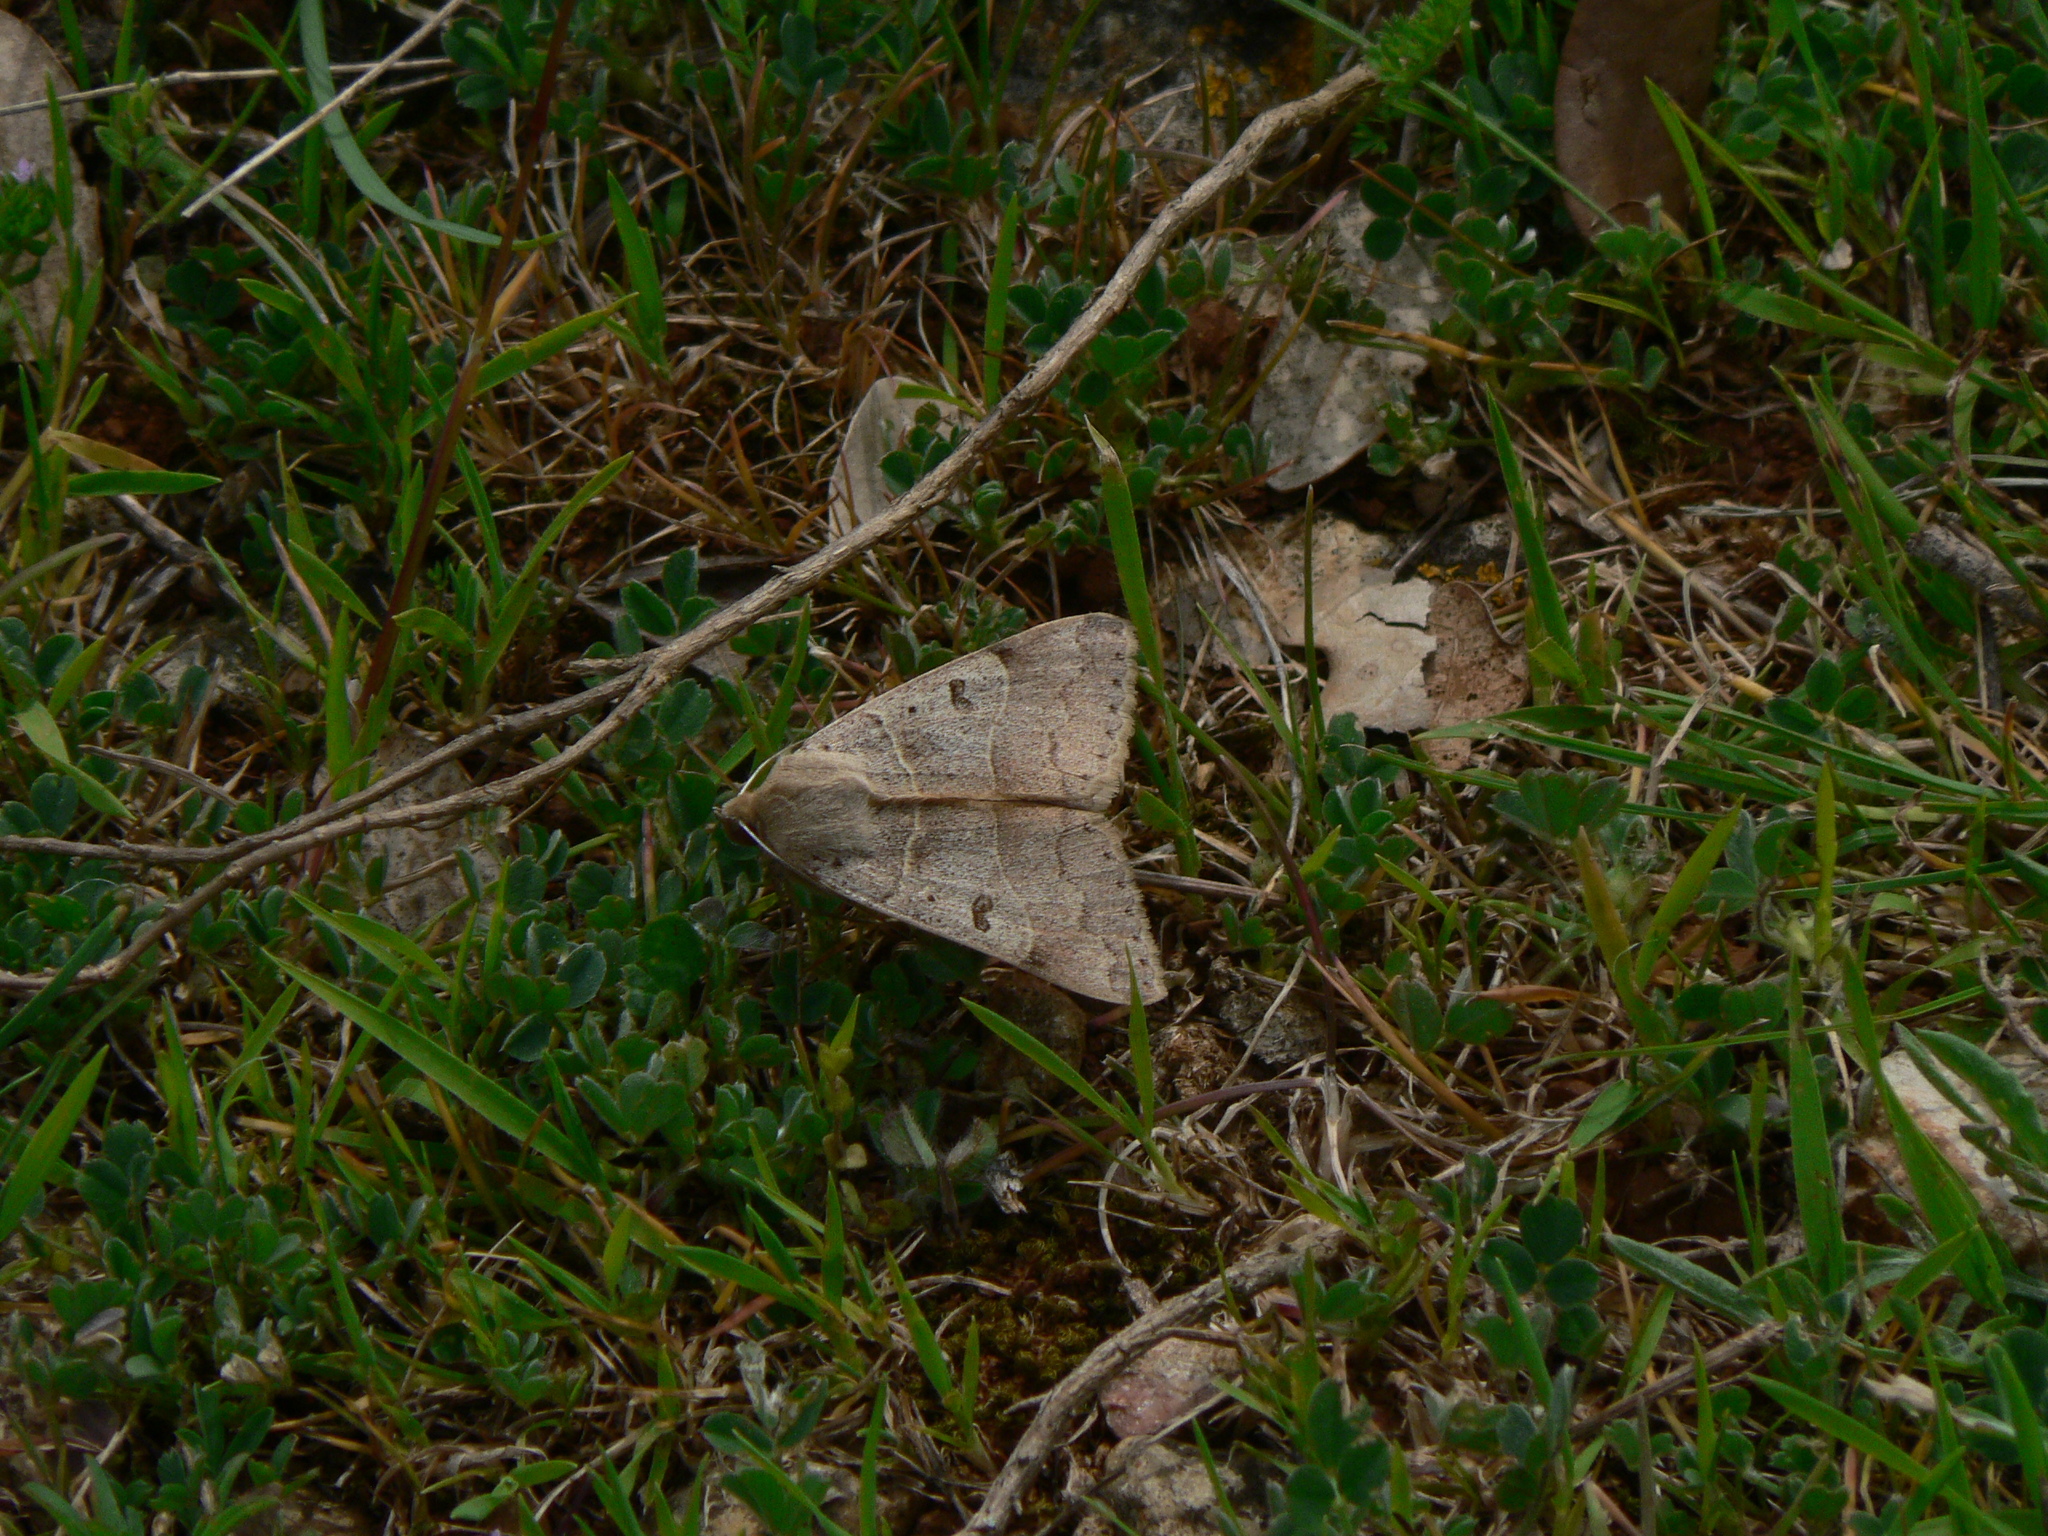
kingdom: Animalia
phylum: Arthropoda
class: Insecta
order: Lepidoptera
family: Erebidae
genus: Minucia
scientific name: Minucia lunaris
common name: Lunar double-stripe
